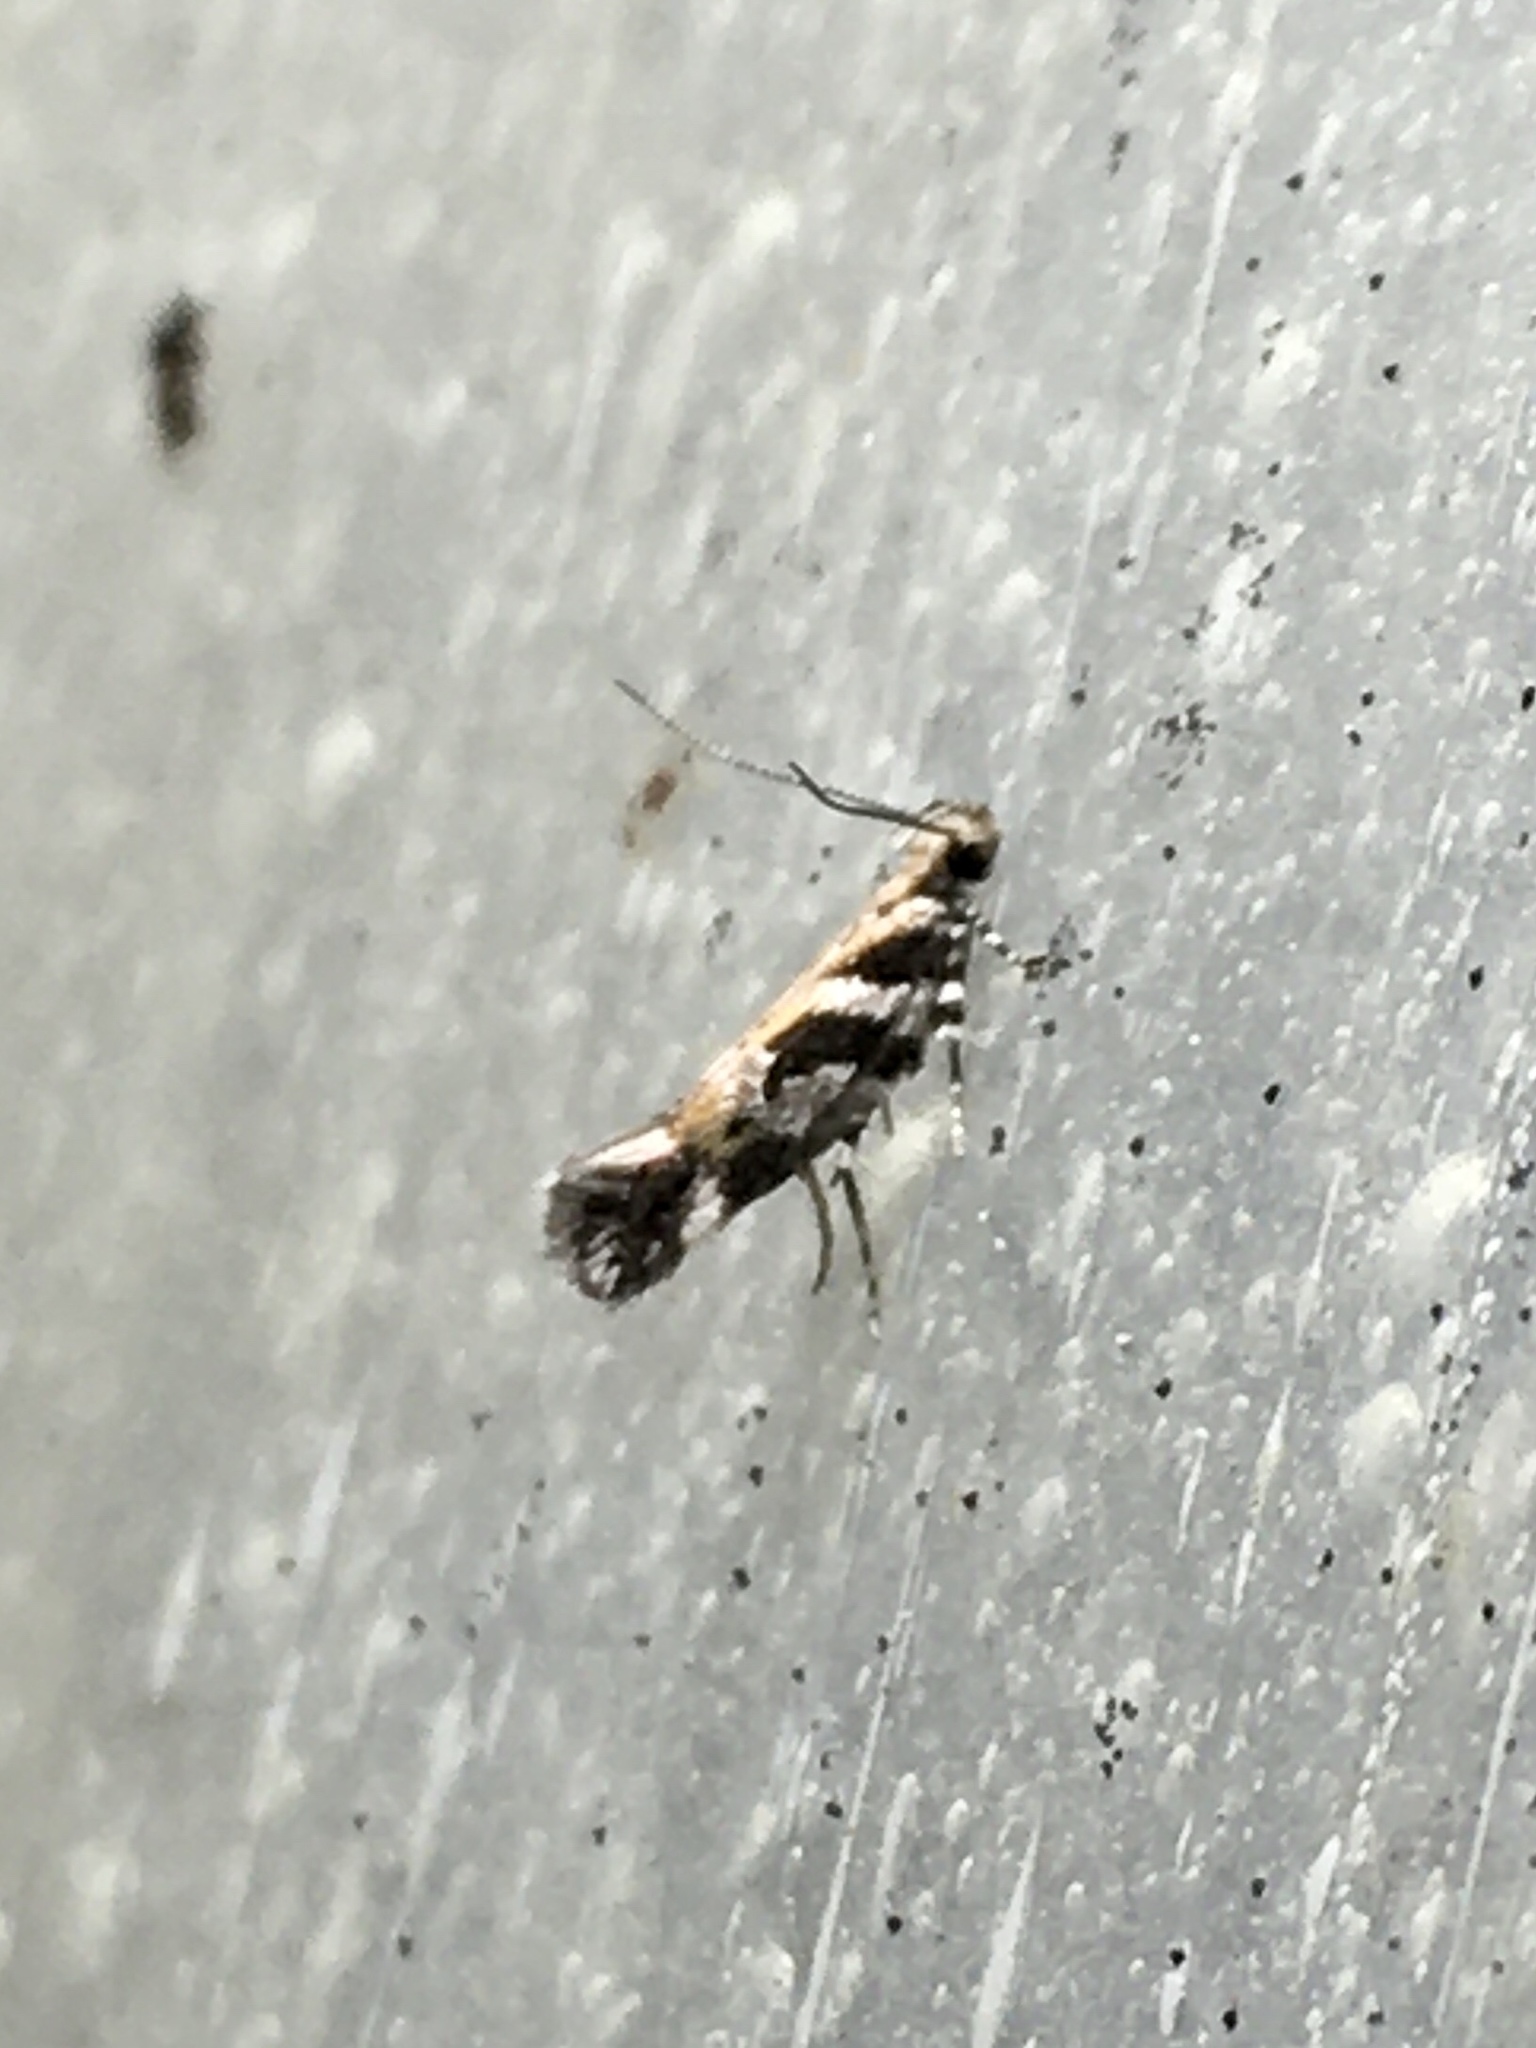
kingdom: Animalia
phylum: Arthropoda
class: Insecta
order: Lepidoptera
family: Gelechiidae
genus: Aristotelia
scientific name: Aristotelia roseosuffusella
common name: Pink-washed aristotelia moth
